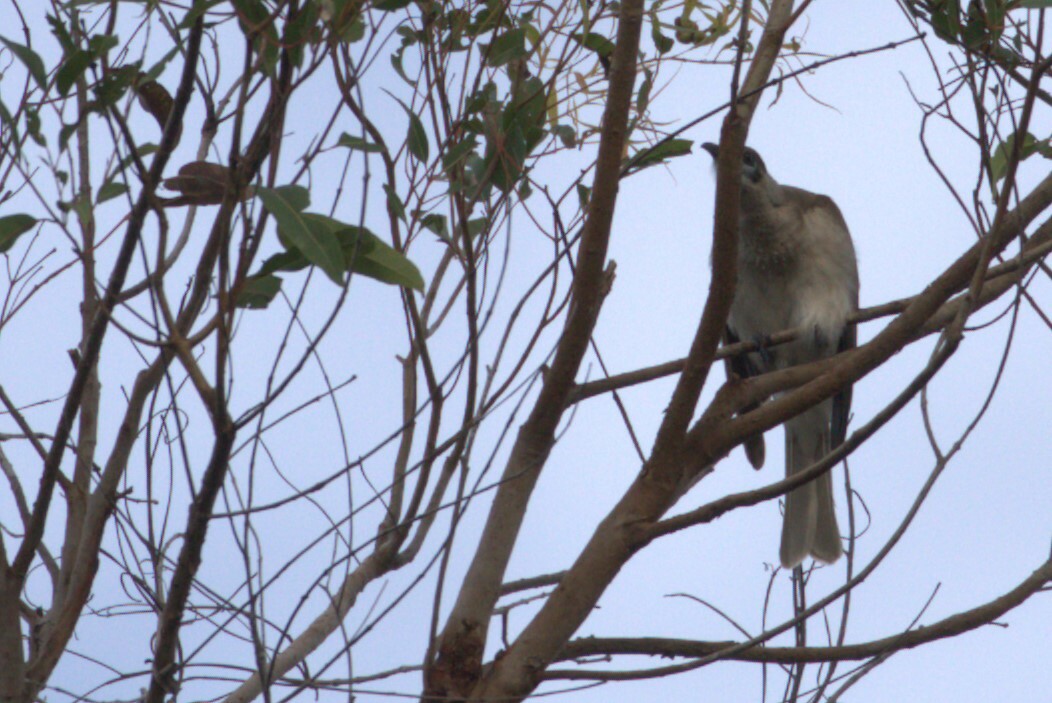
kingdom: Animalia
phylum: Chordata
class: Aves
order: Passeriformes
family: Meliphagidae
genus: Philemon
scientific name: Philemon citreogularis
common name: Little friarbird
